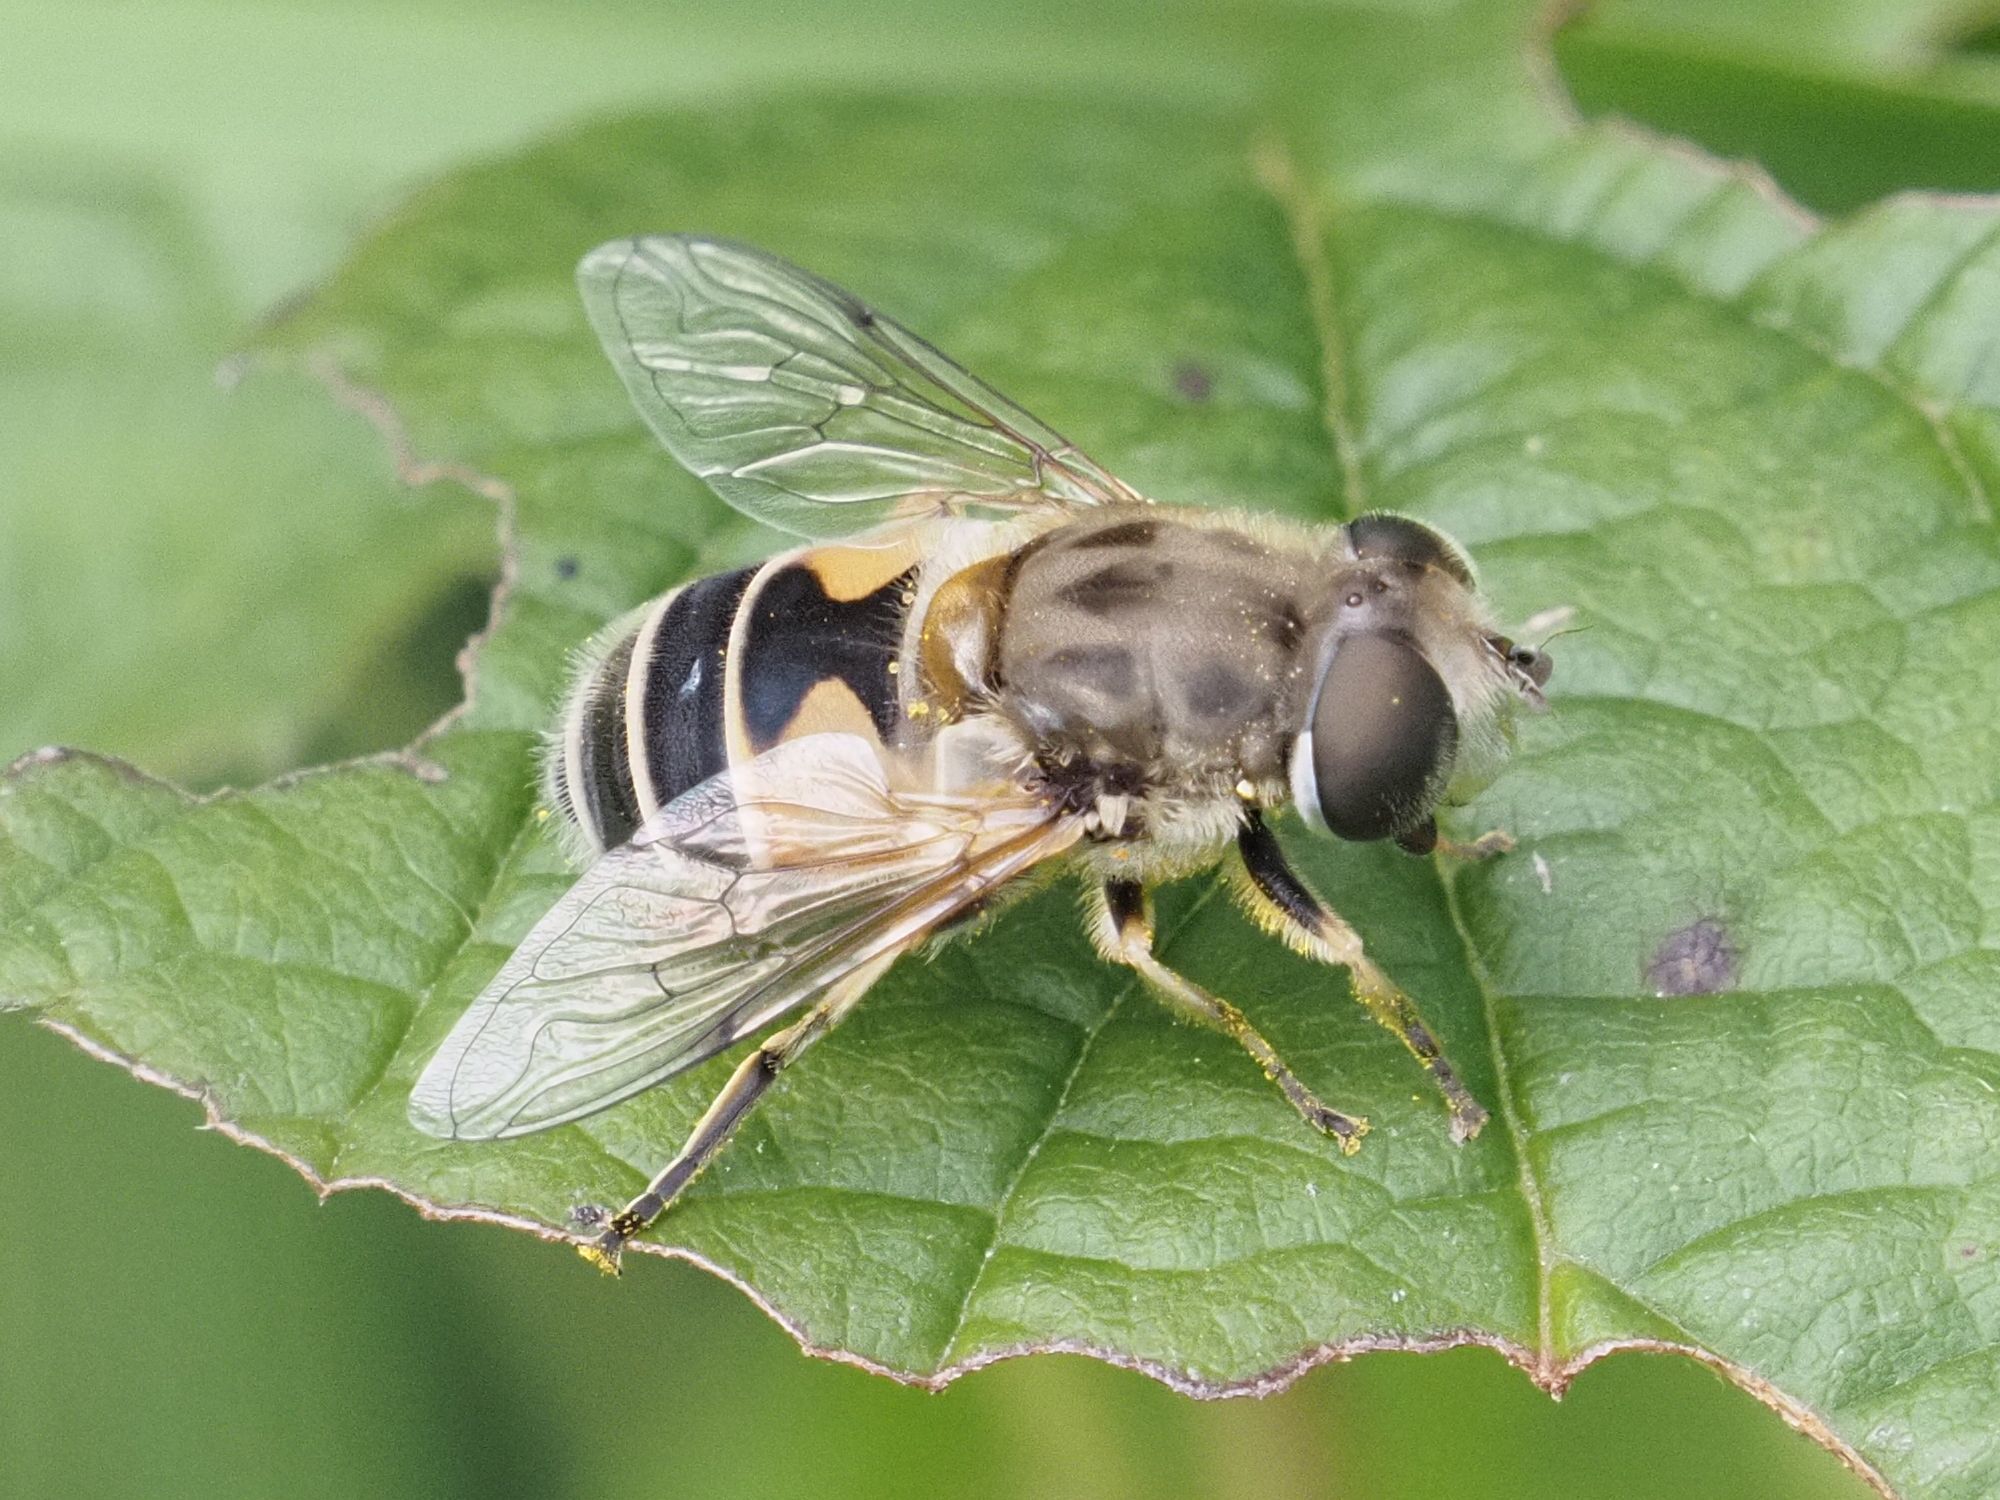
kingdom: Animalia
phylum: Arthropoda
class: Insecta
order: Diptera
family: Syrphidae
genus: Eristalis
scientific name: Eristalis arbustorum
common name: Hover fly
